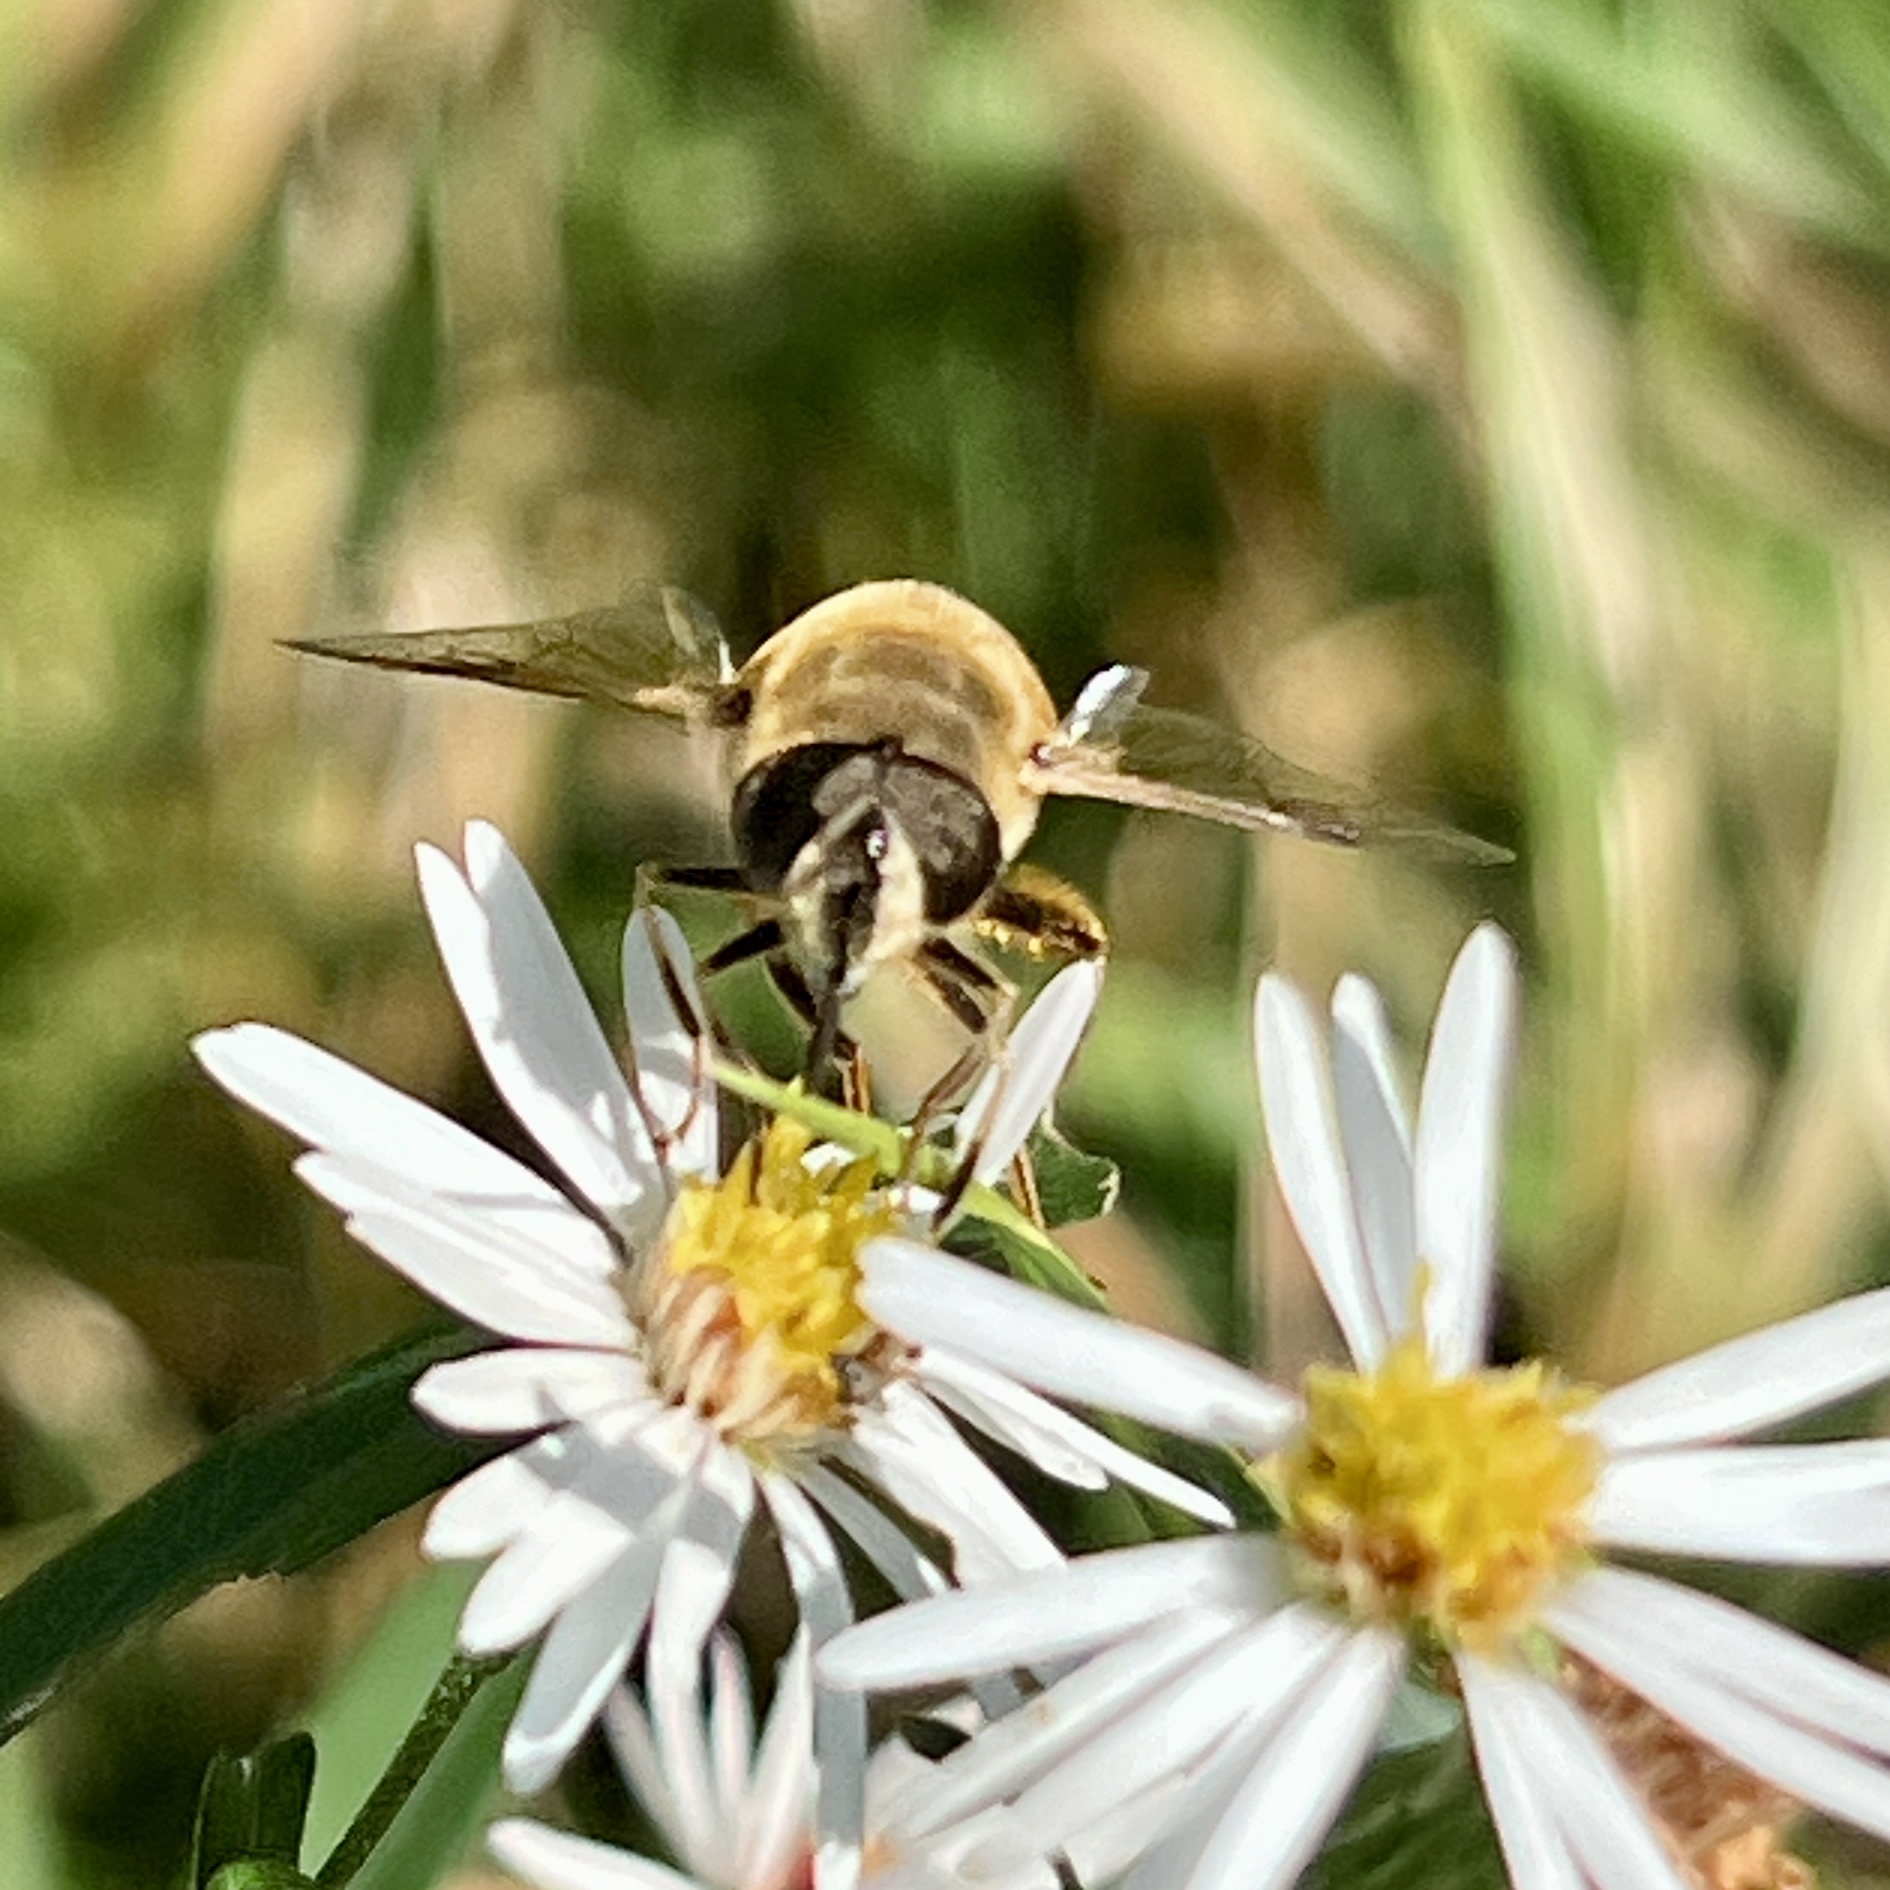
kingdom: Animalia
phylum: Arthropoda
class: Insecta
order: Diptera
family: Syrphidae
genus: Eristalis
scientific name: Eristalis tenax
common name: Drone fly
